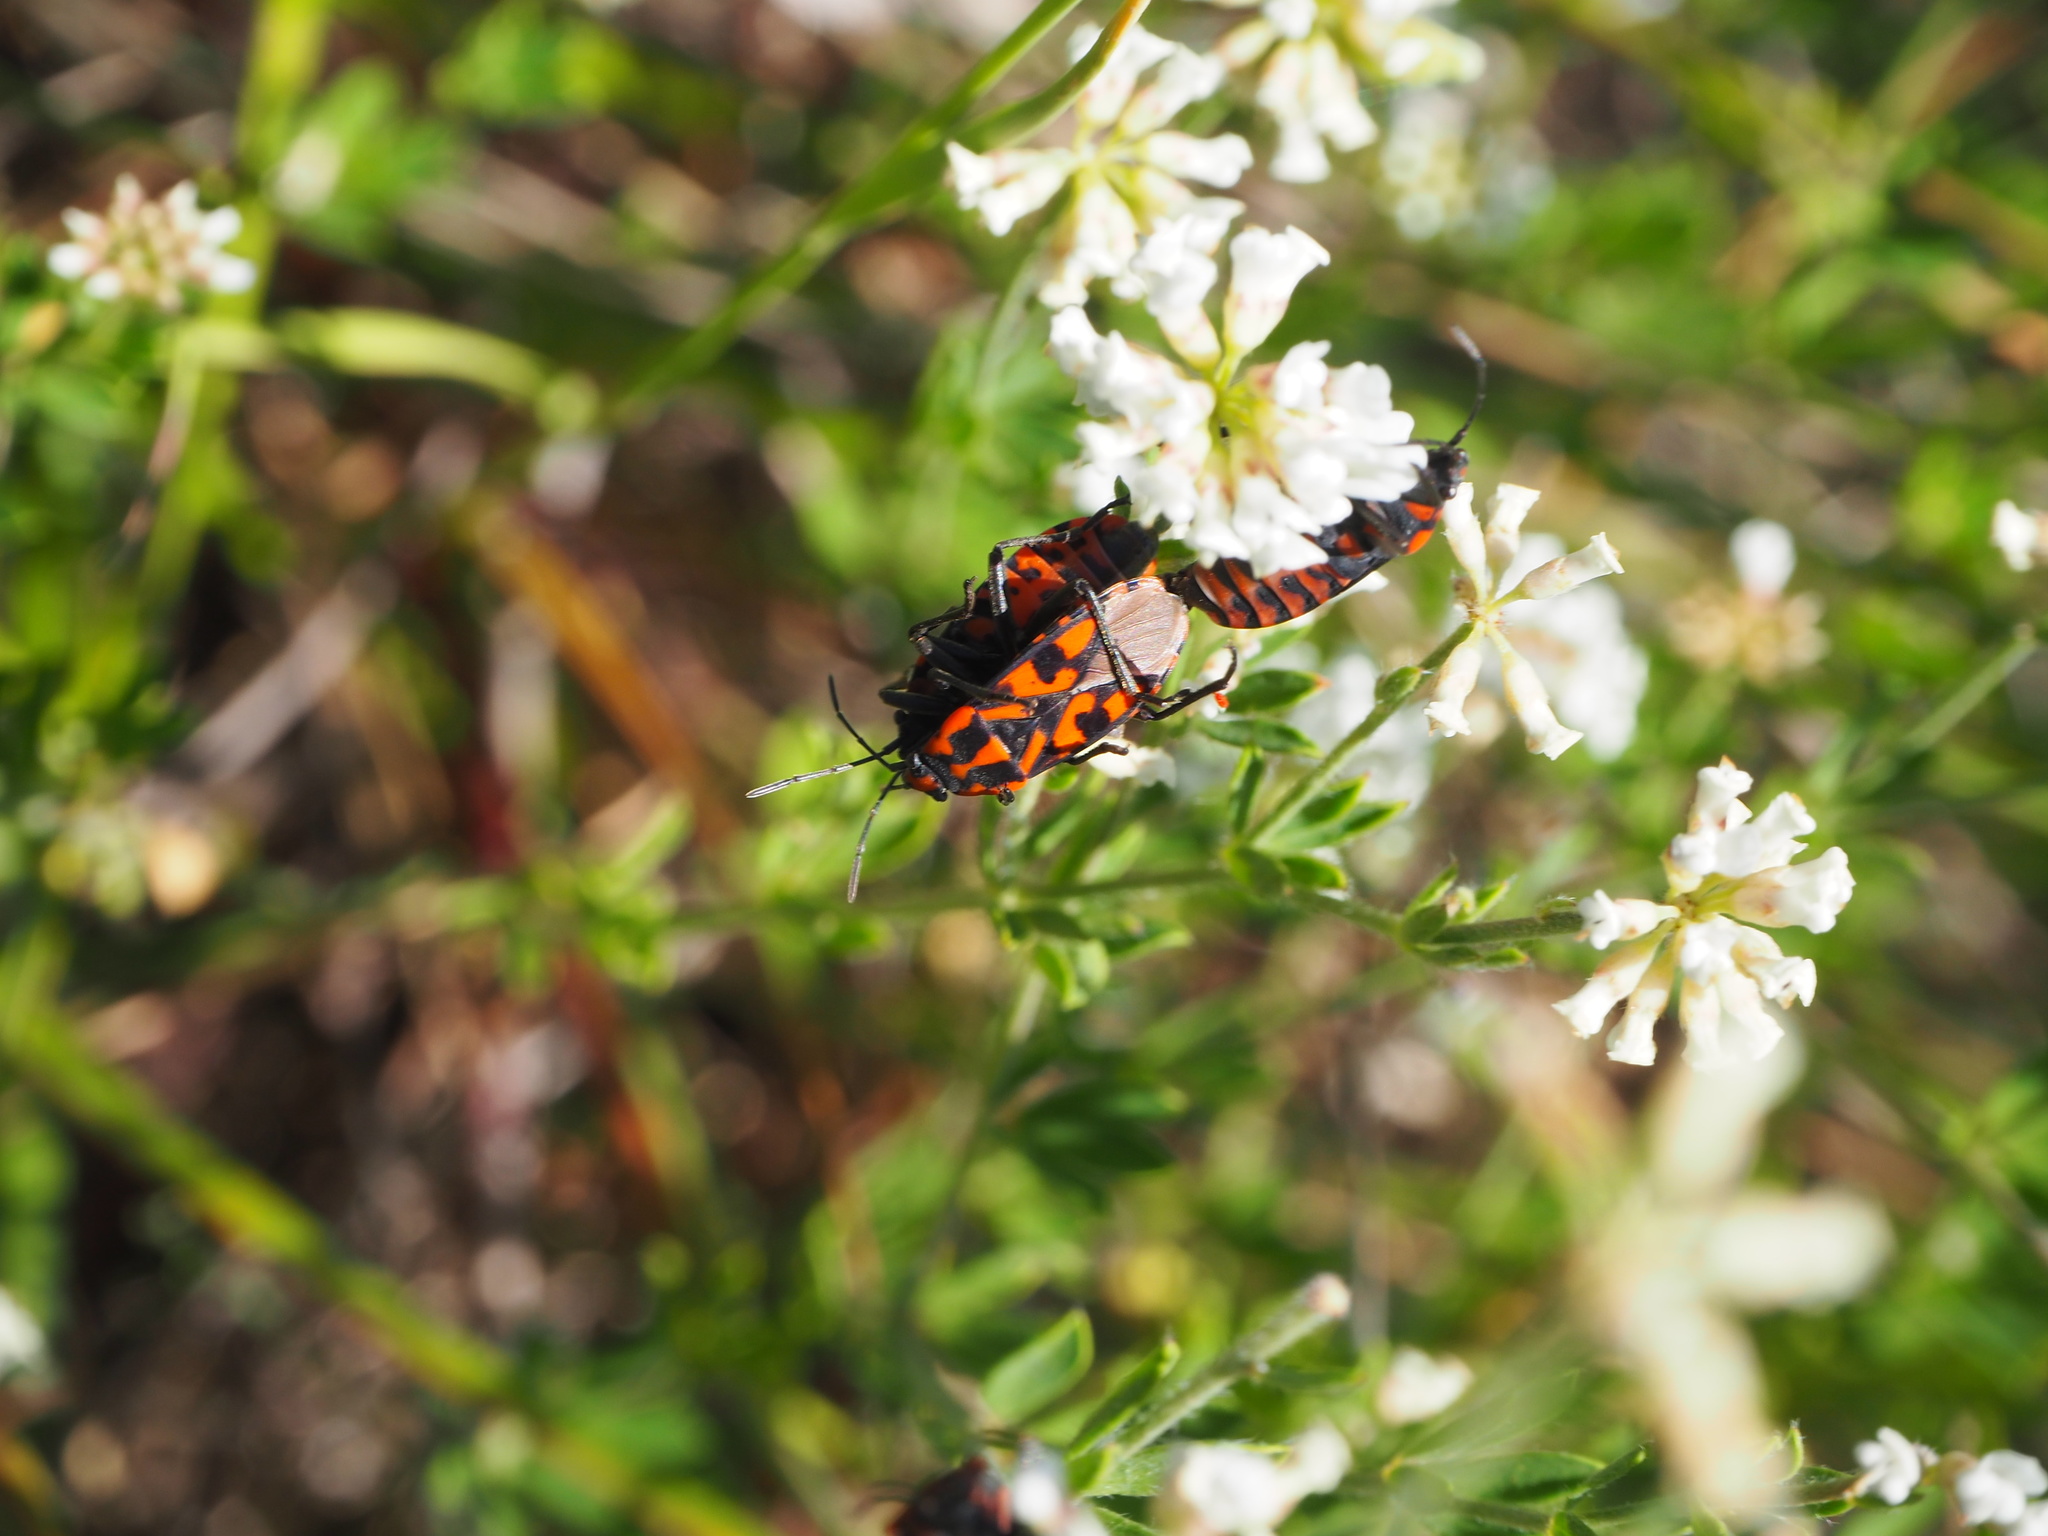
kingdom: Animalia
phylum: Arthropoda
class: Insecta
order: Hemiptera
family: Lygaeidae
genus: Spilostethus
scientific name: Spilostethus saxatilis
